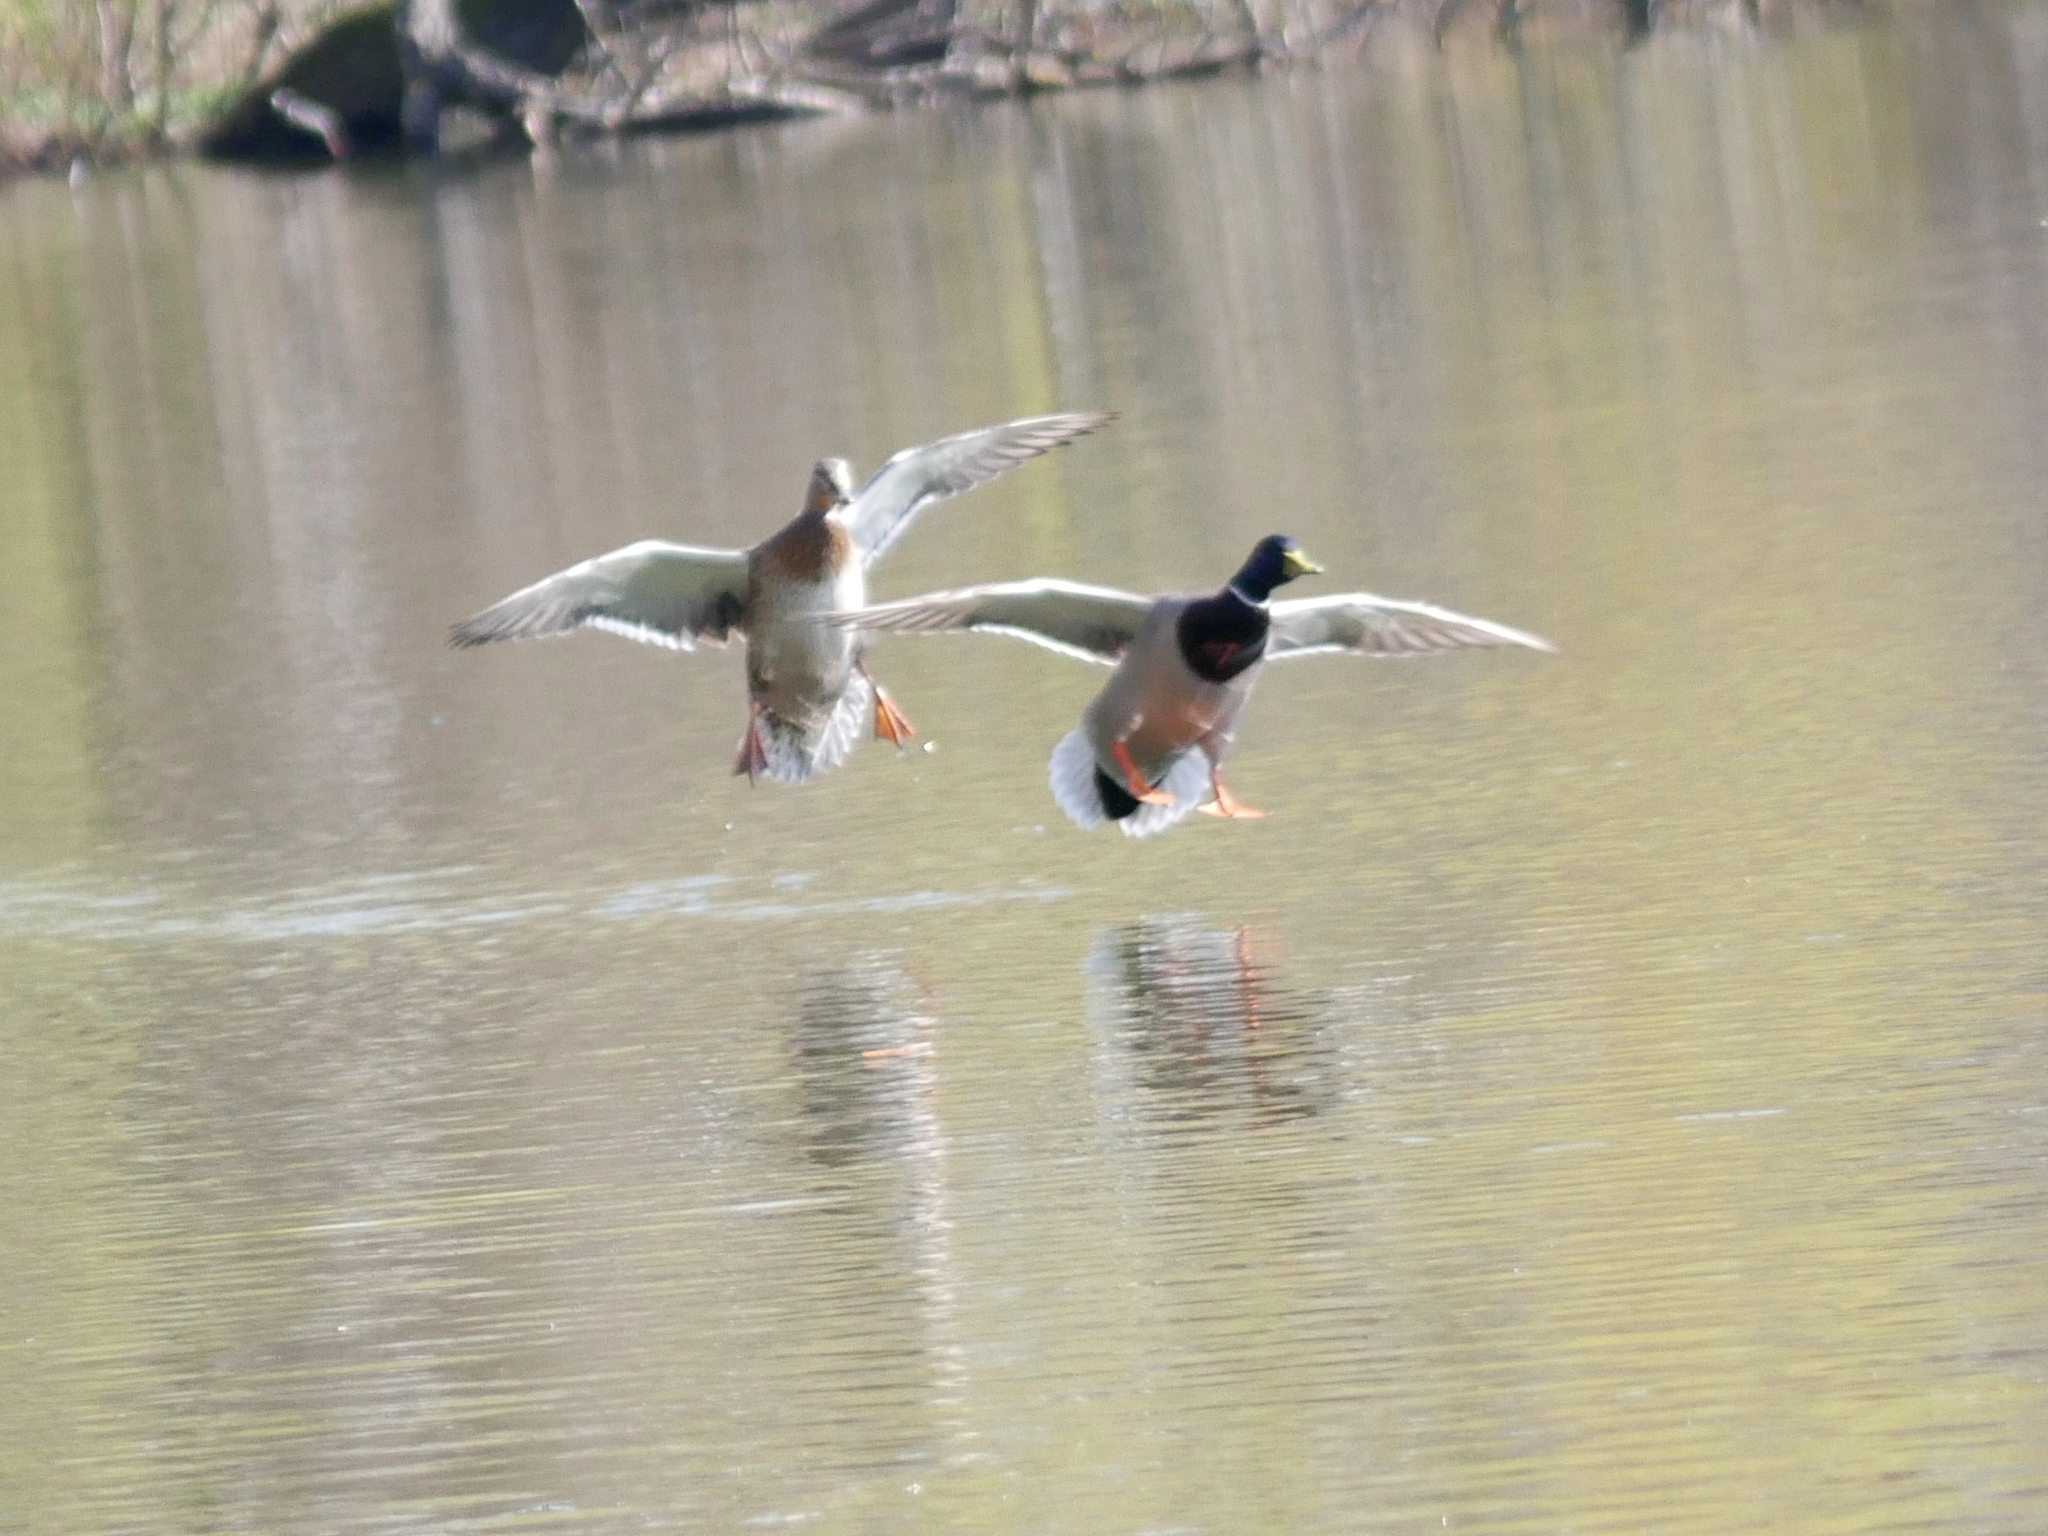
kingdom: Animalia
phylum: Chordata
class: Aves
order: Anseriformes
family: Anatidae
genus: Anas
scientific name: Anas platyrhynchos
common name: Mallard
